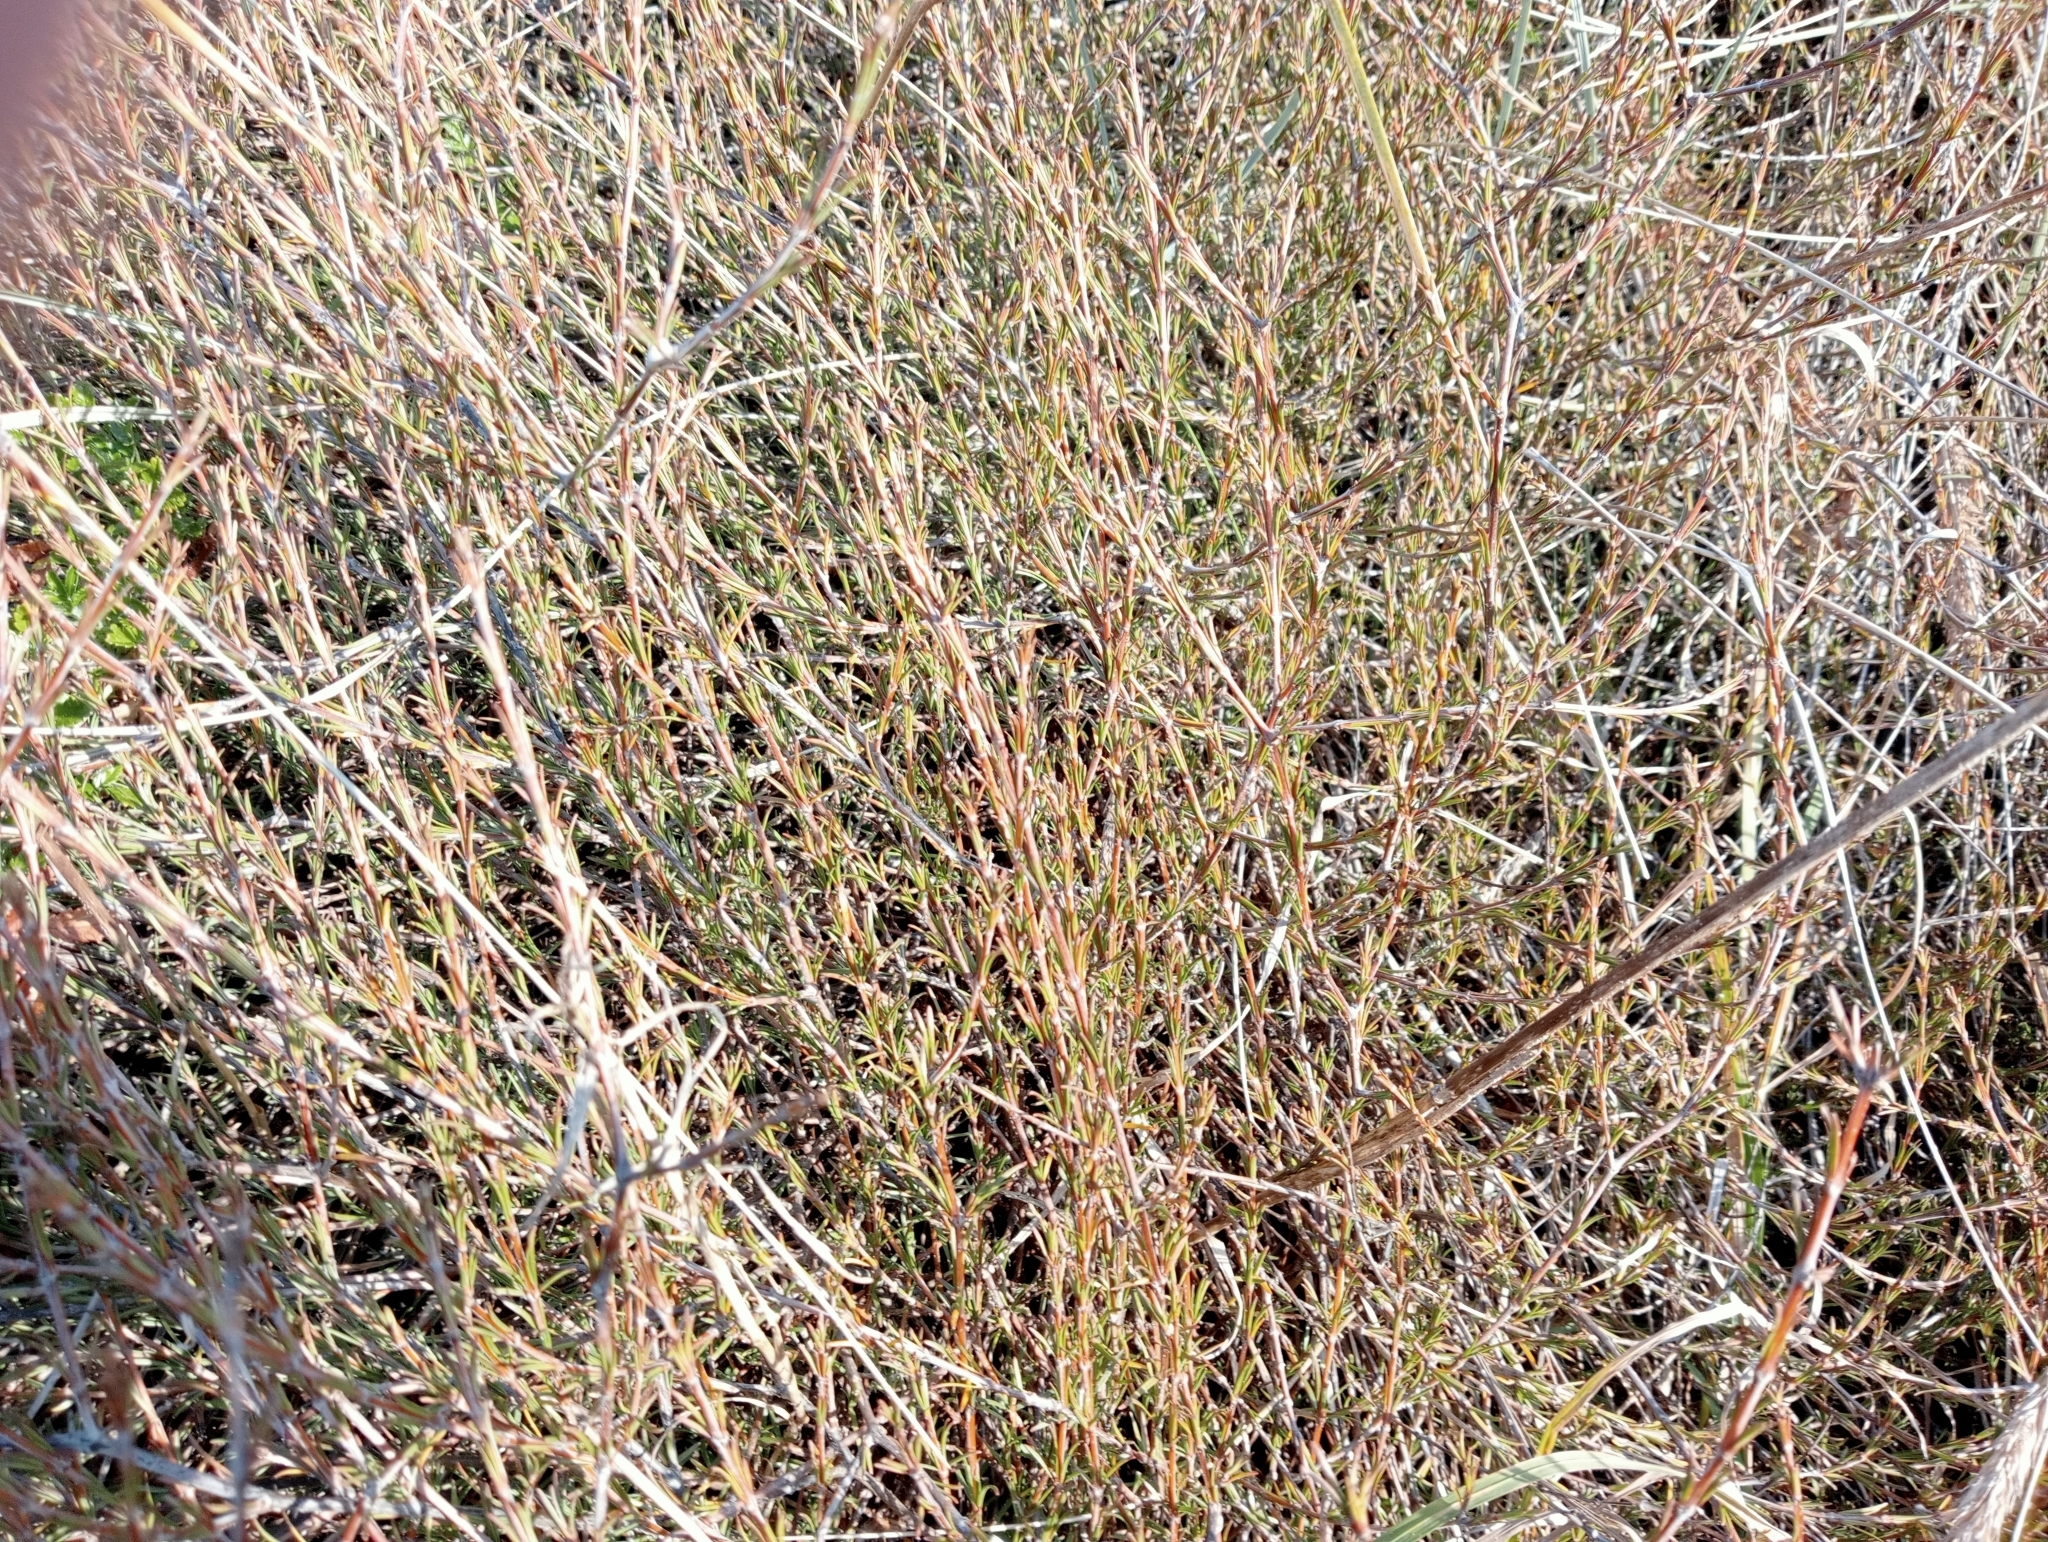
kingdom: Plantae
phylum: Tracheophyta
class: Magnoliopsida
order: Gentianales
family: Rubiaceae
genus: Coprosma
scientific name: Coprosma acerosa
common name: Sand coprosma
